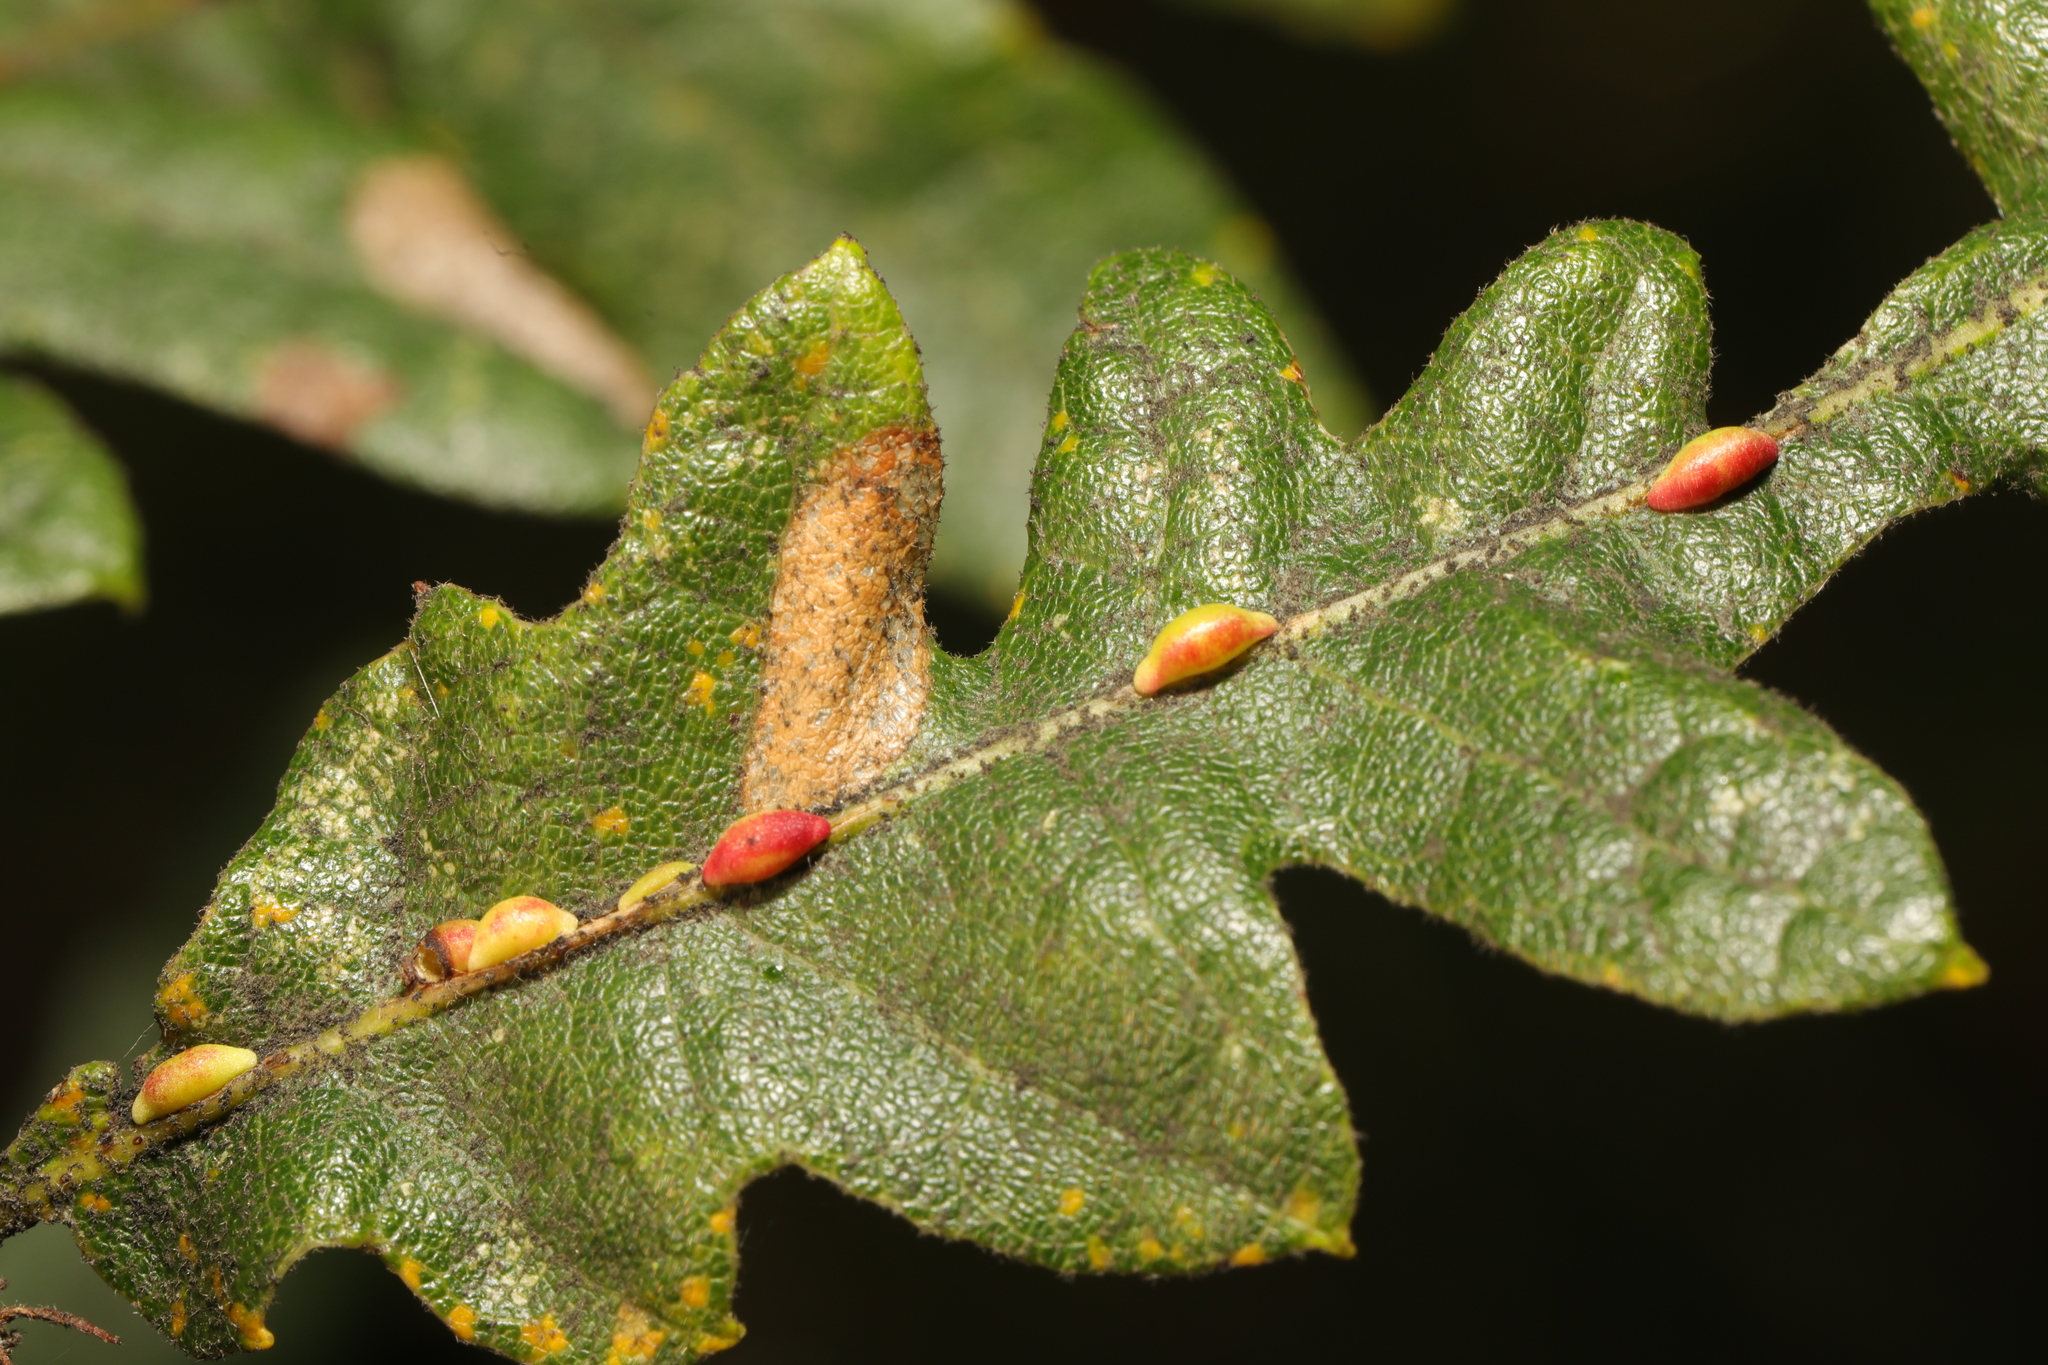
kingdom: Animalia
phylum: Arthropoda
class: Insecta
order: Hymenoptera
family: Cynipidae
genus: Neuroterus
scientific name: Neuroterus saliens
